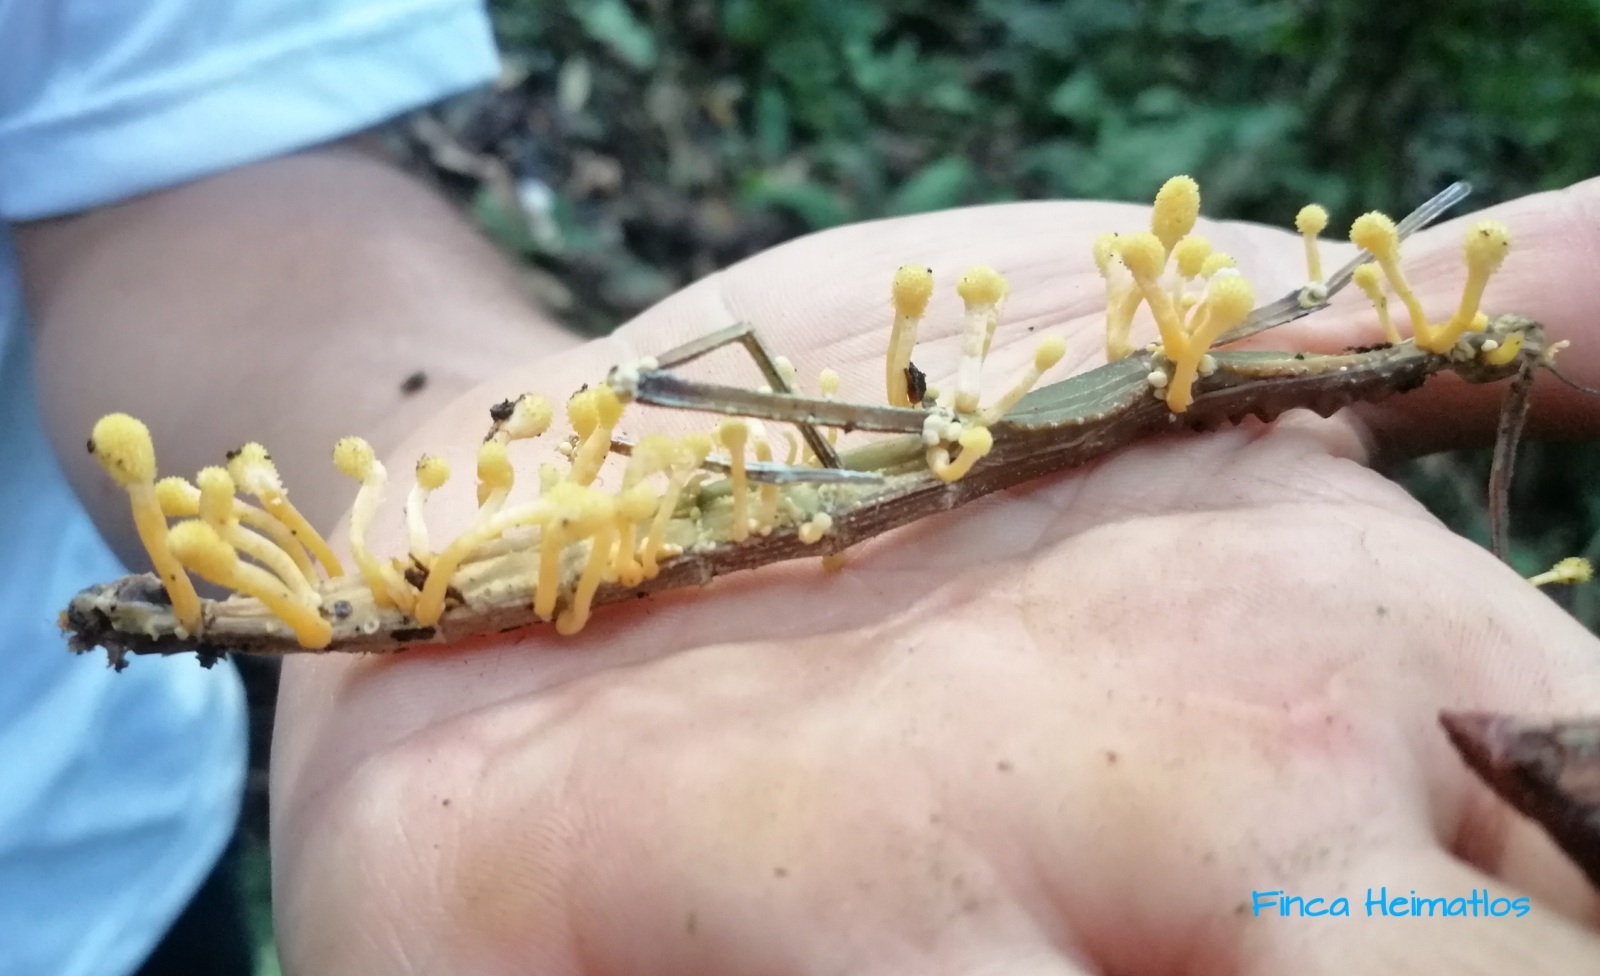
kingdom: Fungi
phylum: Ascomycota
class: Sordariomycetes
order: Hypocreales
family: Cordycipitaceae
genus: Beauveria
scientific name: Beauveria diapheromeriphila
